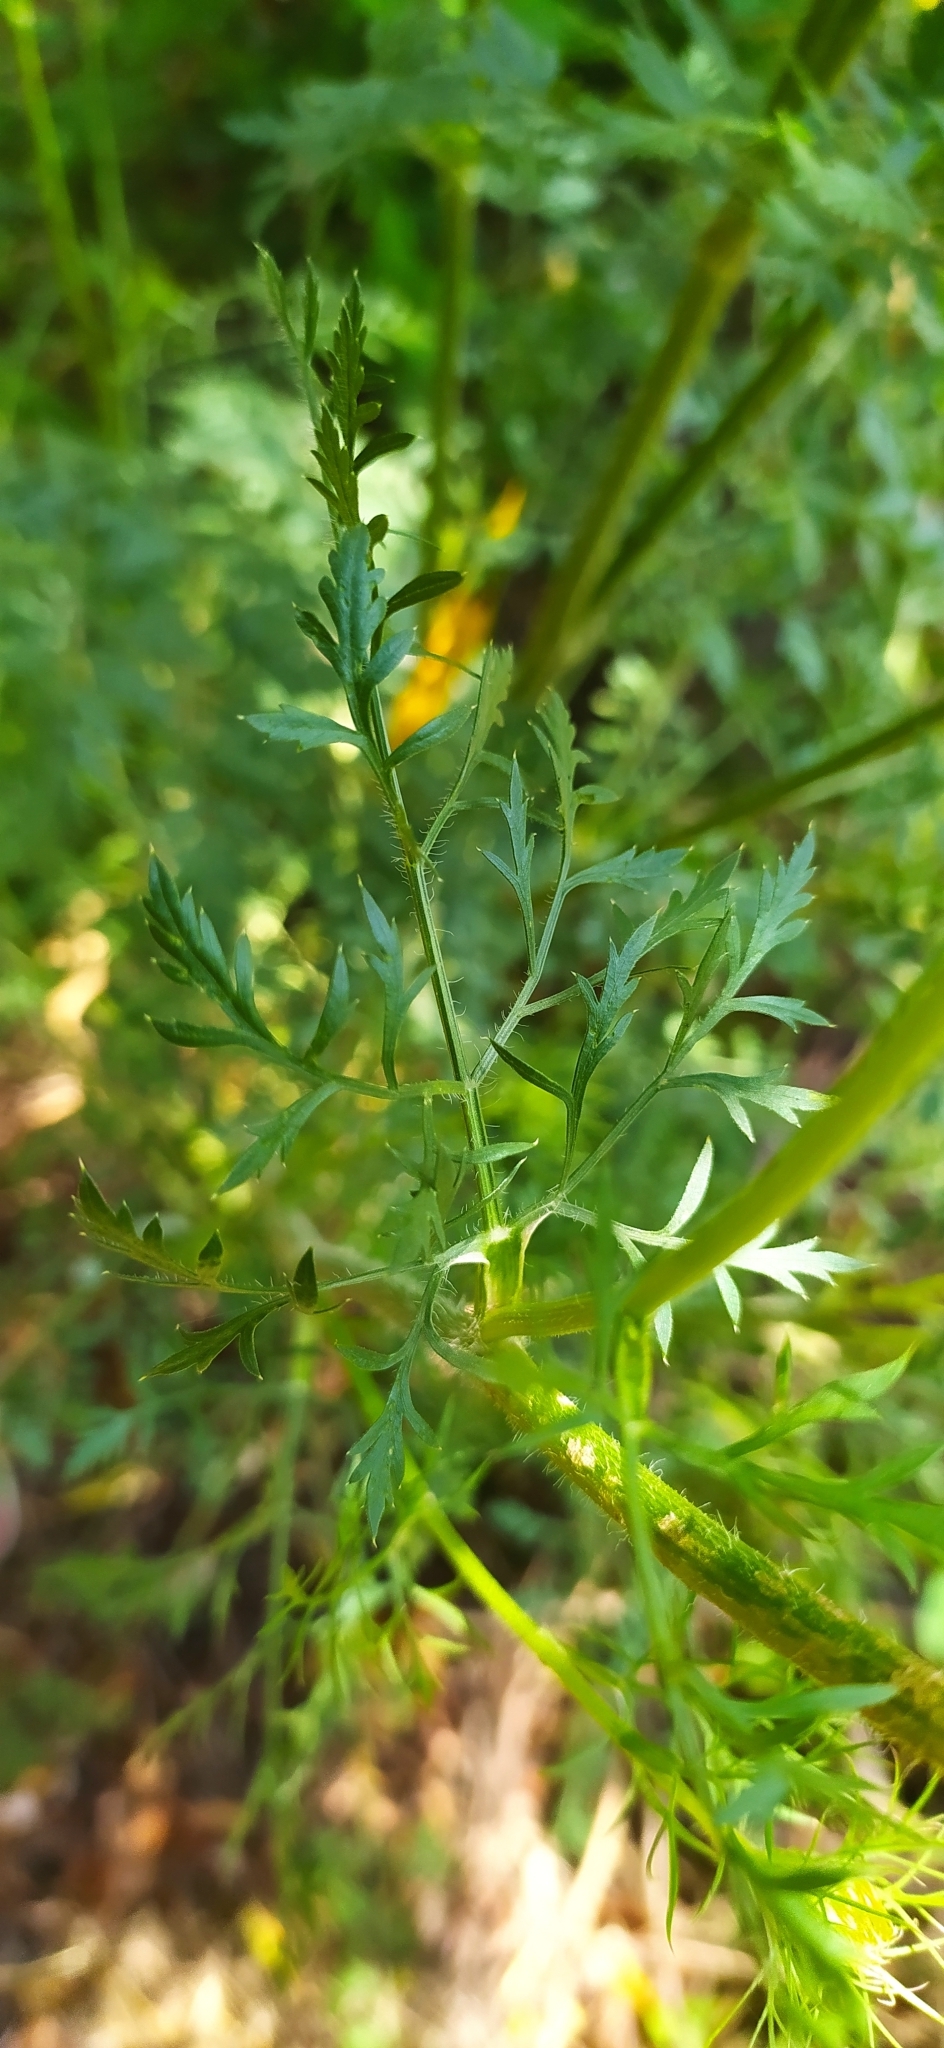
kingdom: Plantae
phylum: Tracheophyta
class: Magnoliopsida
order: Apiales
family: Apiaceae
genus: Daucus
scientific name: Daucus carota
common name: Wild carrot
